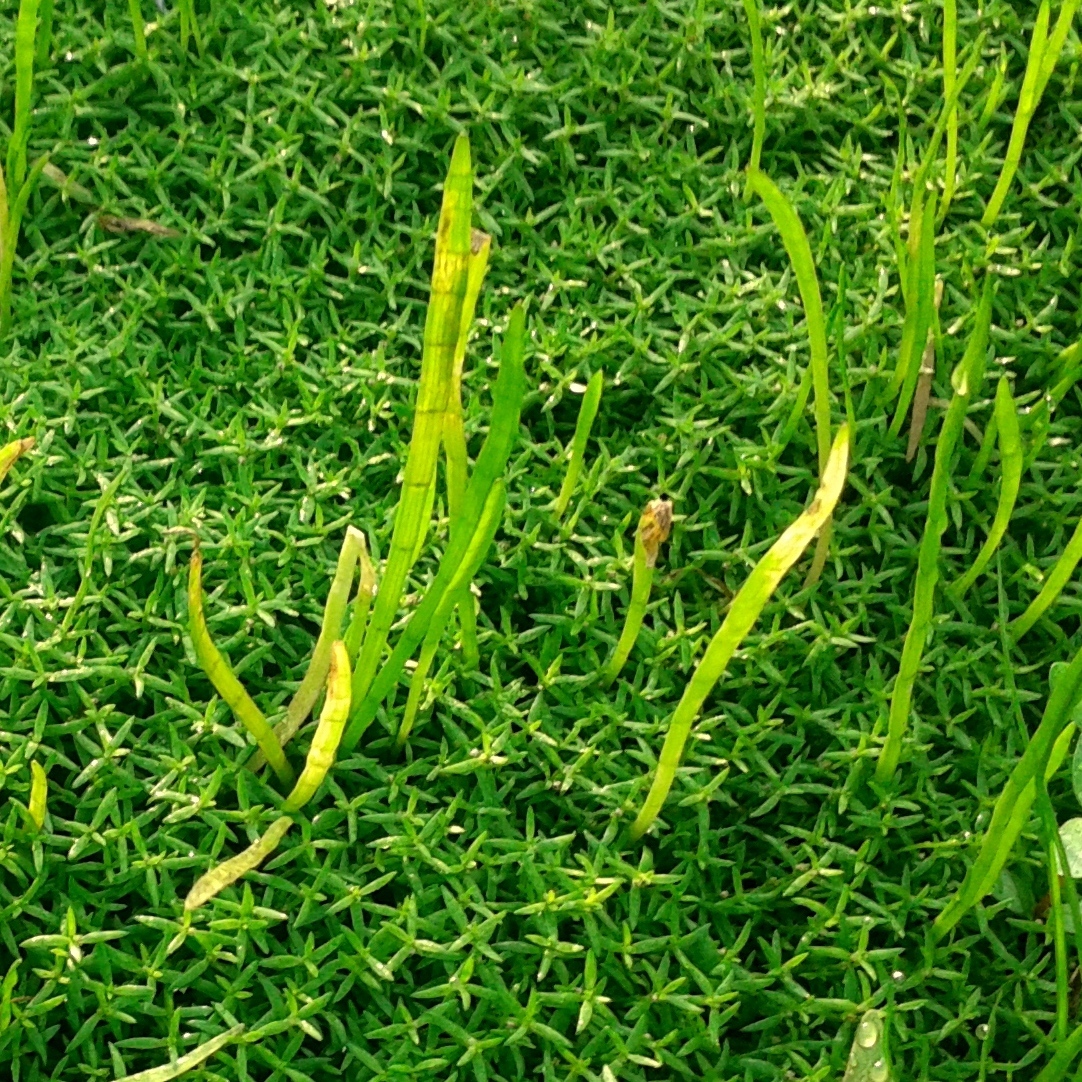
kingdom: Plantae
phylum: Tracheophyta
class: Magnoliopsida
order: Apiales
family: Apiaceae
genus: Lilaeopsis
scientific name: Lilaeopsis minor
